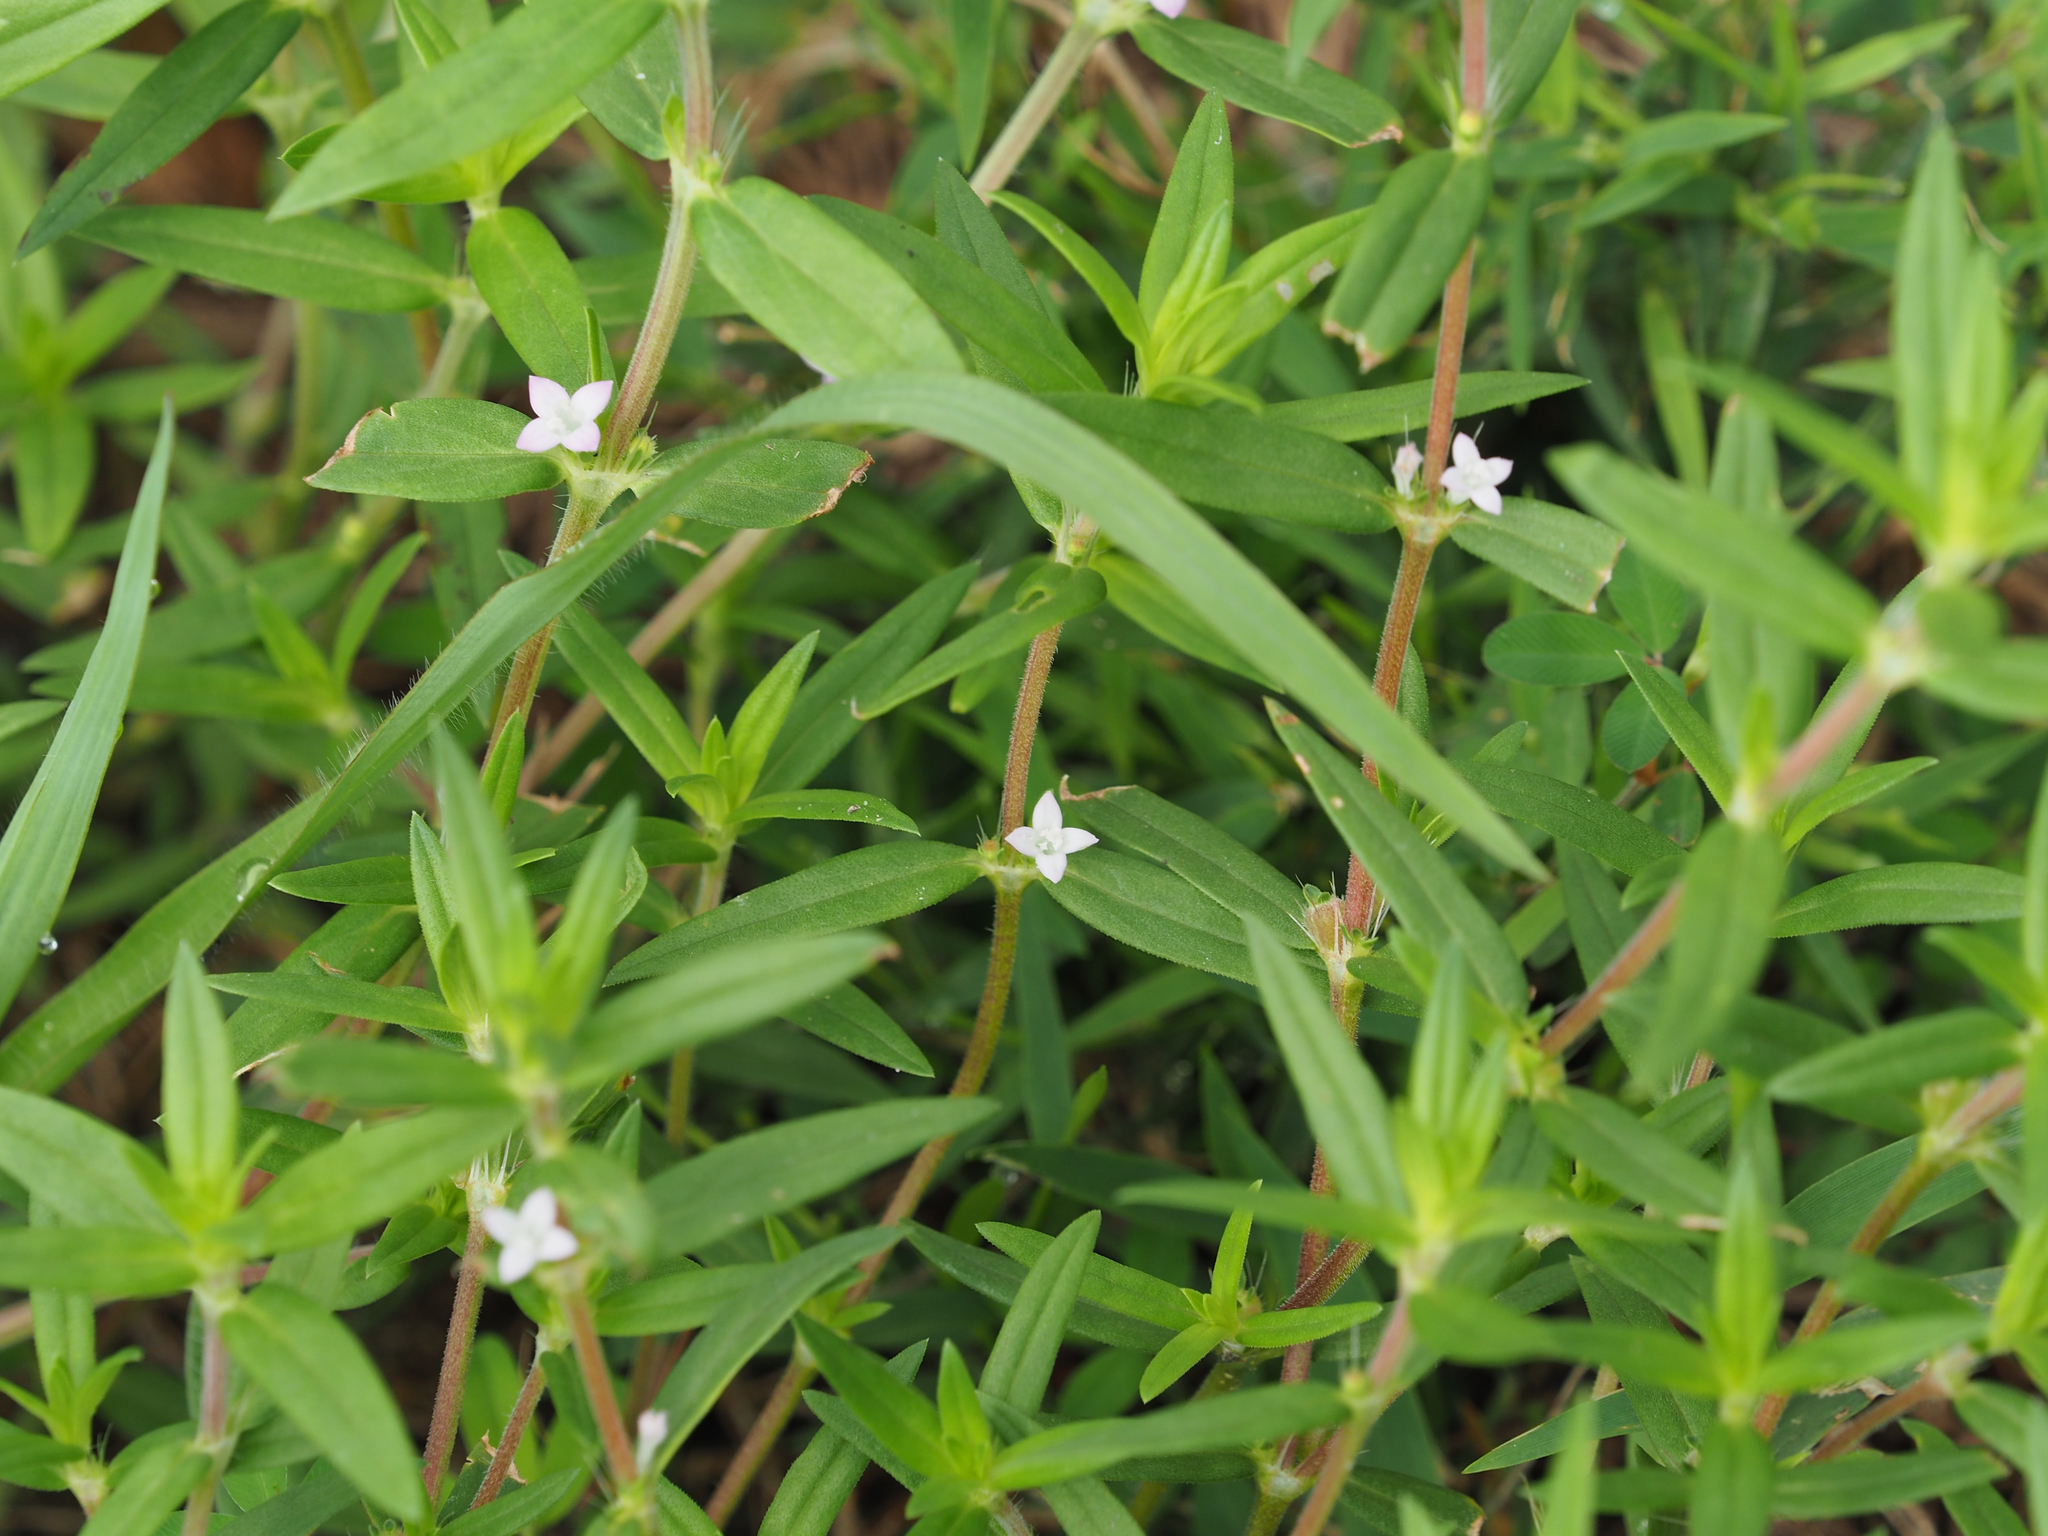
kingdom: Plantae
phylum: Tracheophyta
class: Magnoliopsida
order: Gentianales
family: Rubiaceae
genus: Diodia
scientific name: Diodia virginiana
